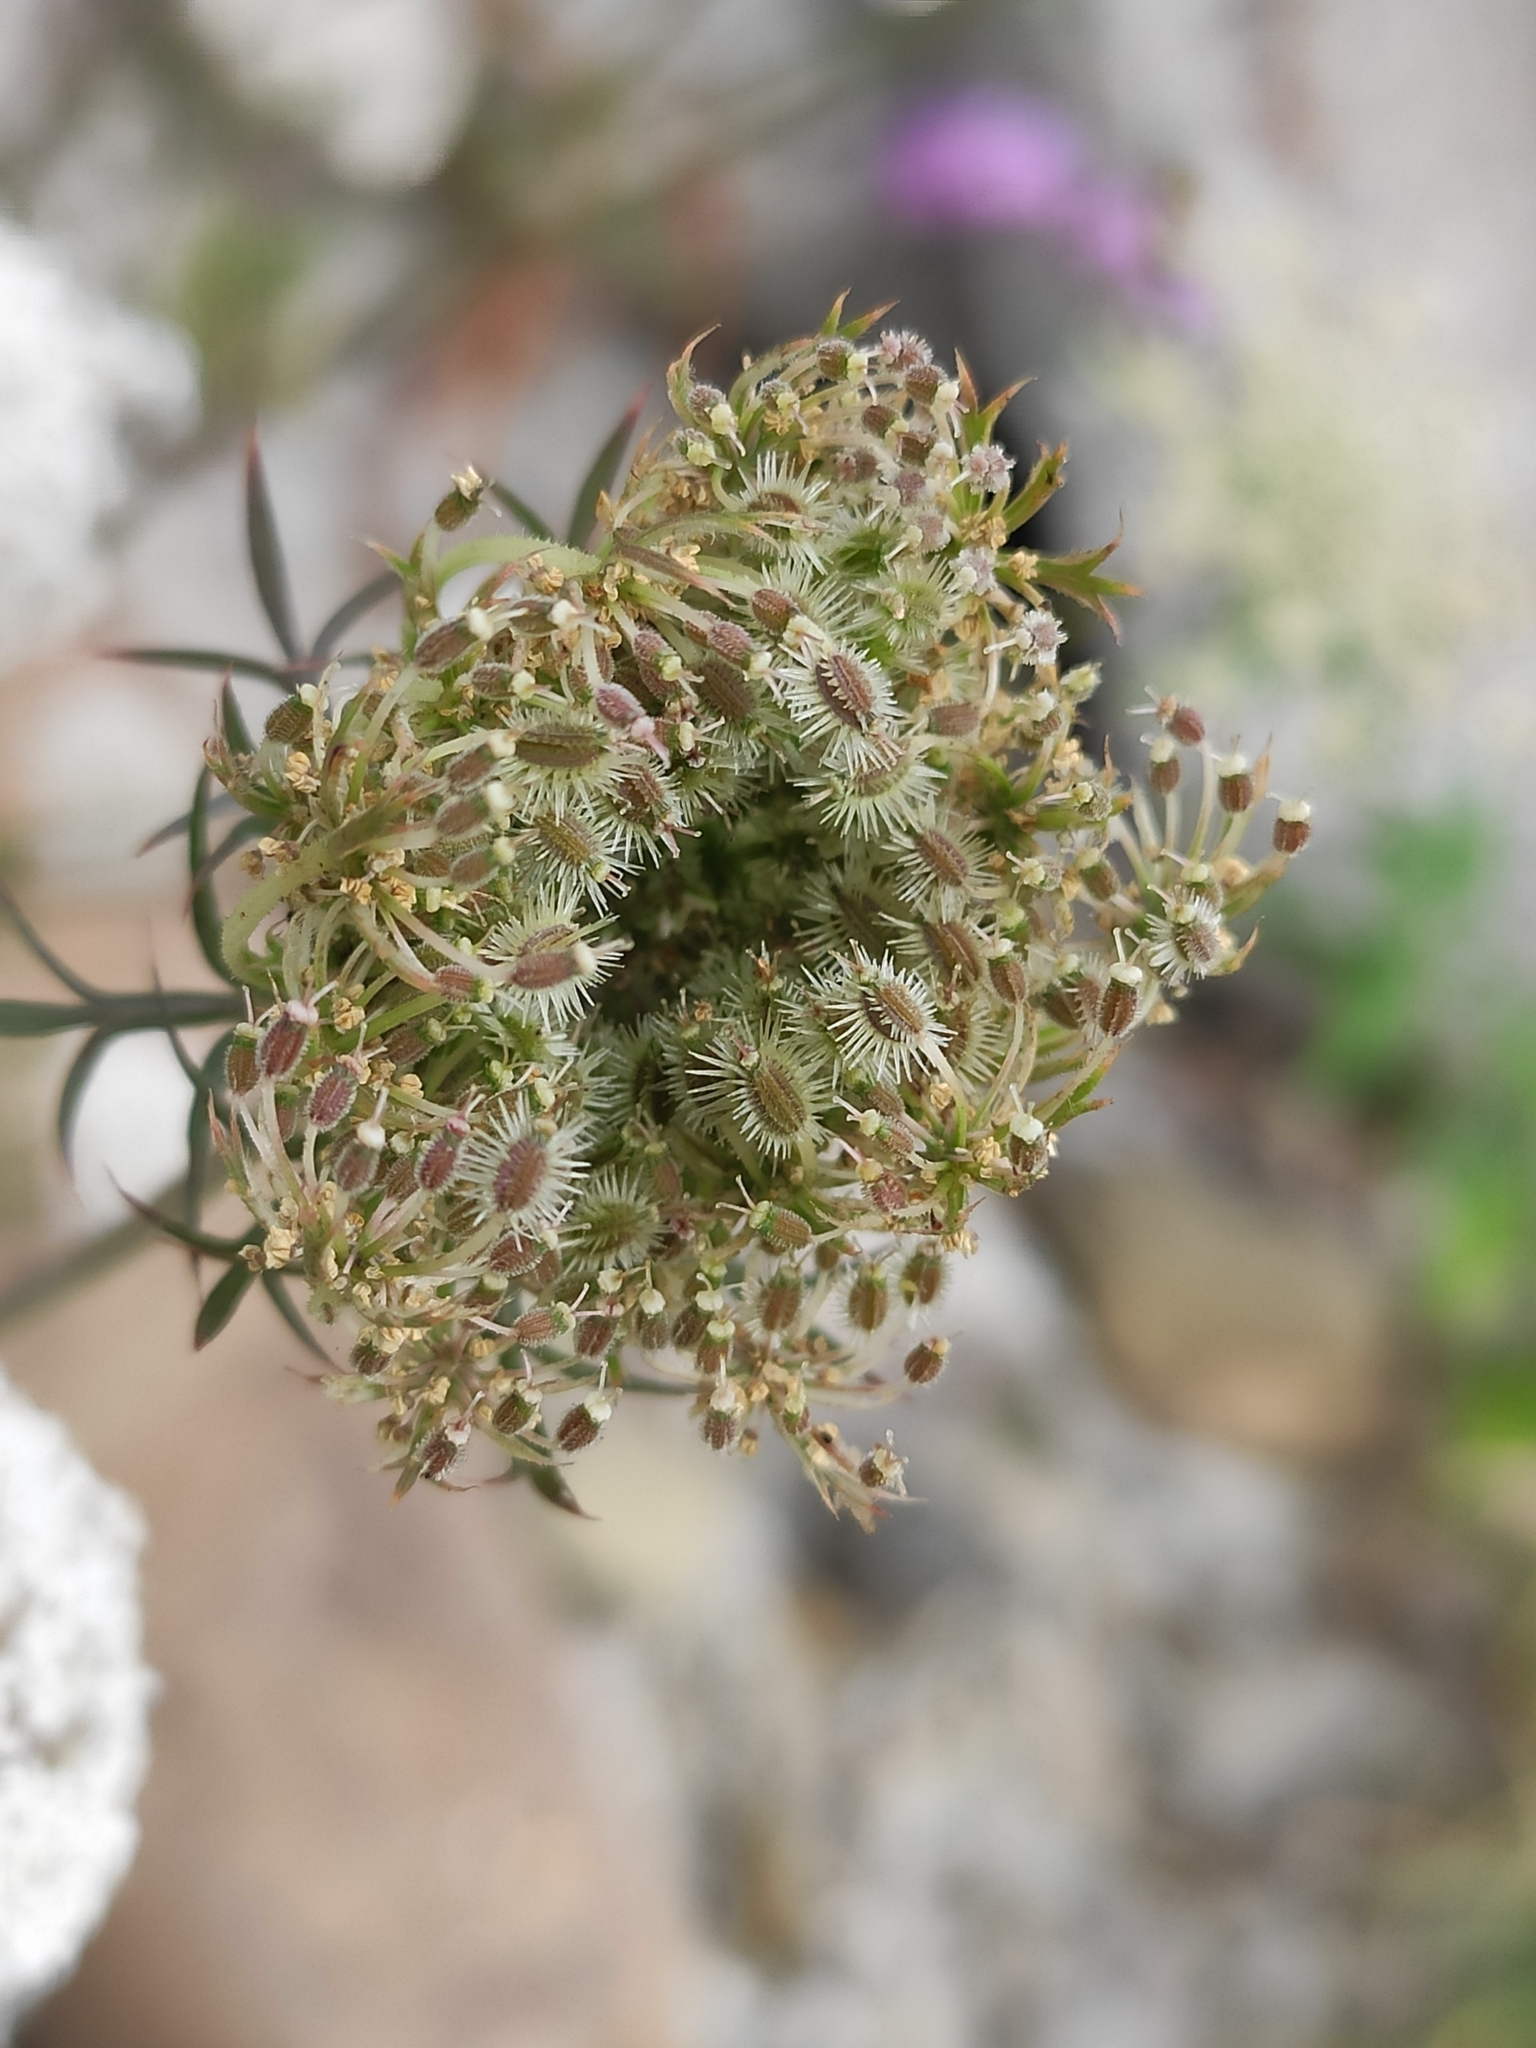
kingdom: Plantae
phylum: Tracheophyta
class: Magnoliopsida
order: Apiales
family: Apiaceae
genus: Daucus
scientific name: Daucus carota
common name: Wild carrot
